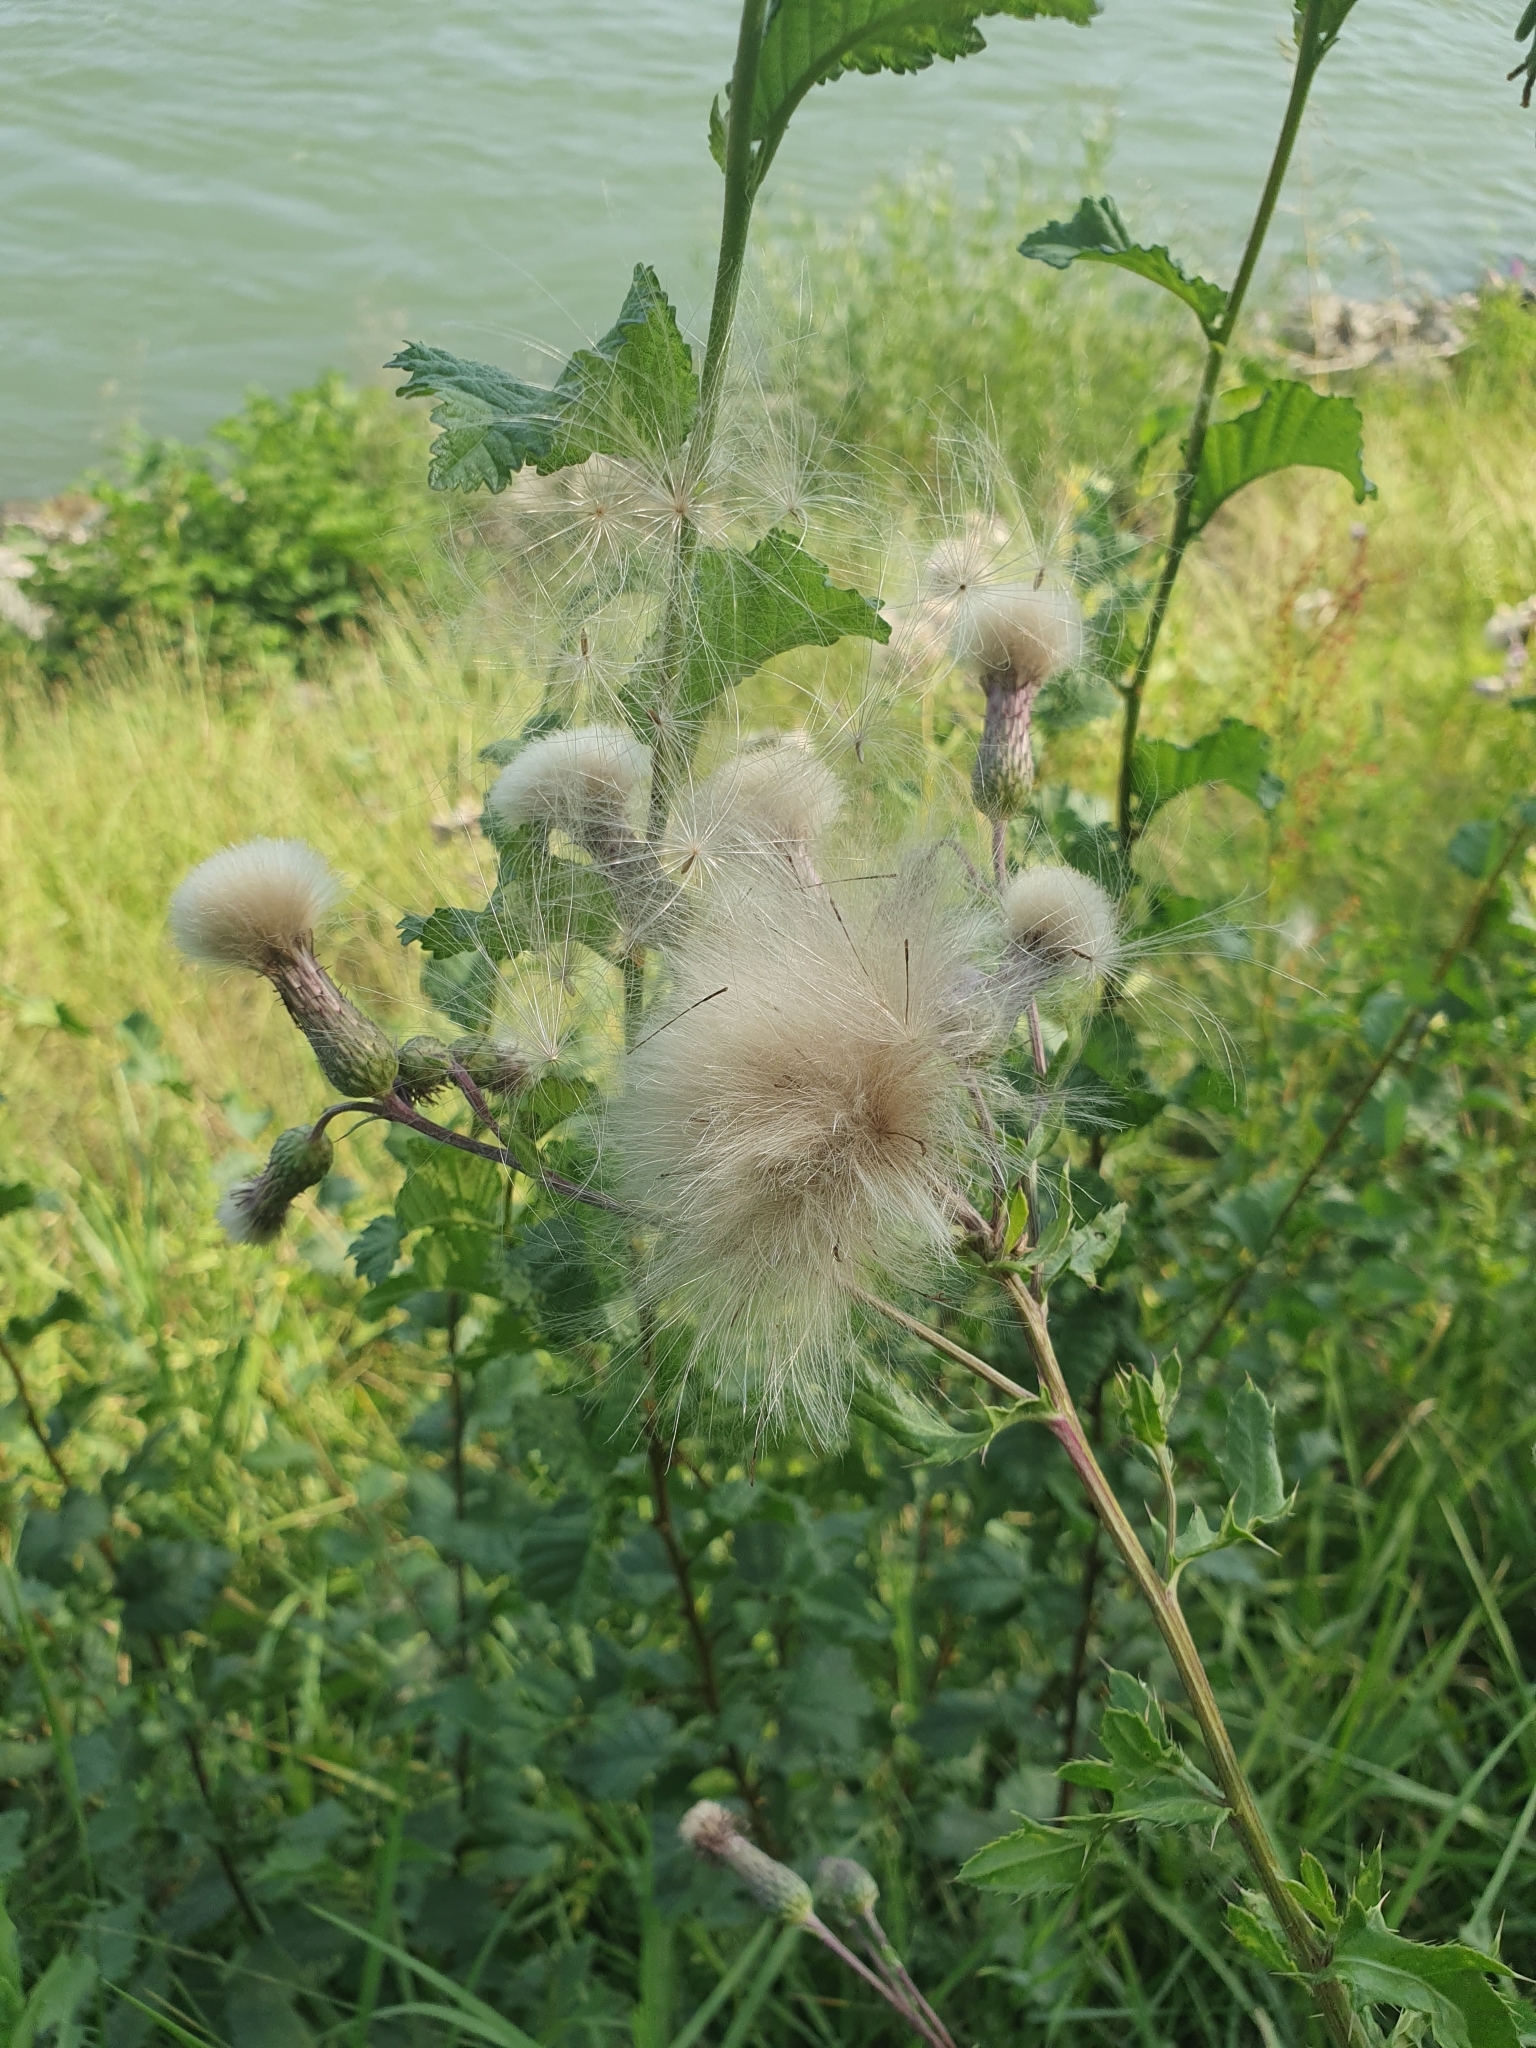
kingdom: Plantae
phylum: Tracheophyta
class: Magnoliopsida
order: Asterales
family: Asteraceae
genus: Cirsium
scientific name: Cirsium arvense
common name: Creeping thistle
